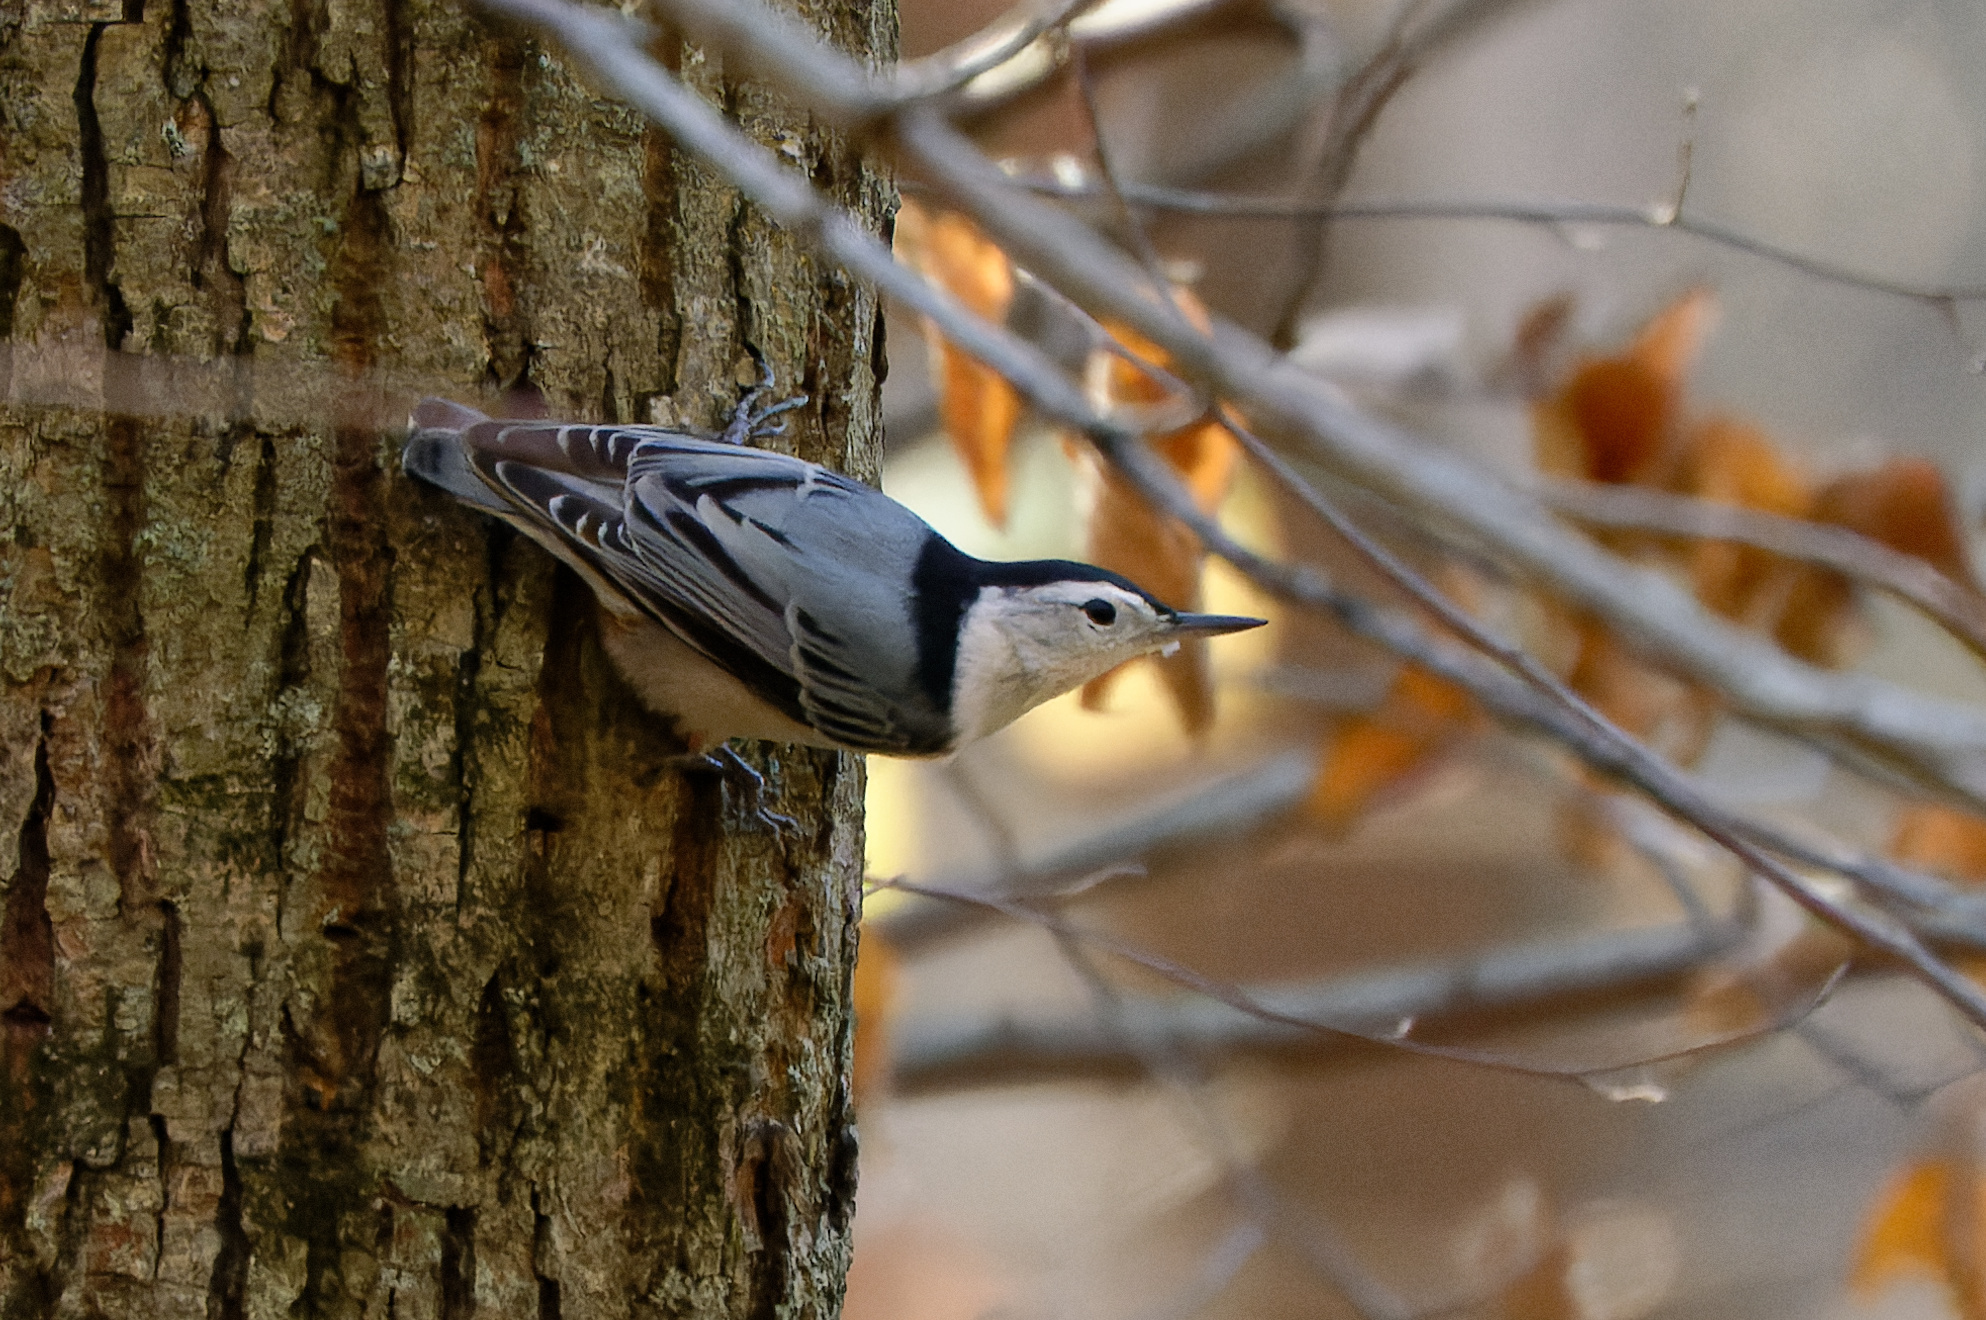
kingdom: Animalia
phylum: Chordata
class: Aves
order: Passeriformes
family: Sittidae
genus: Sitta
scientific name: Sitta carolinensis
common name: White-breasted nuthatch
